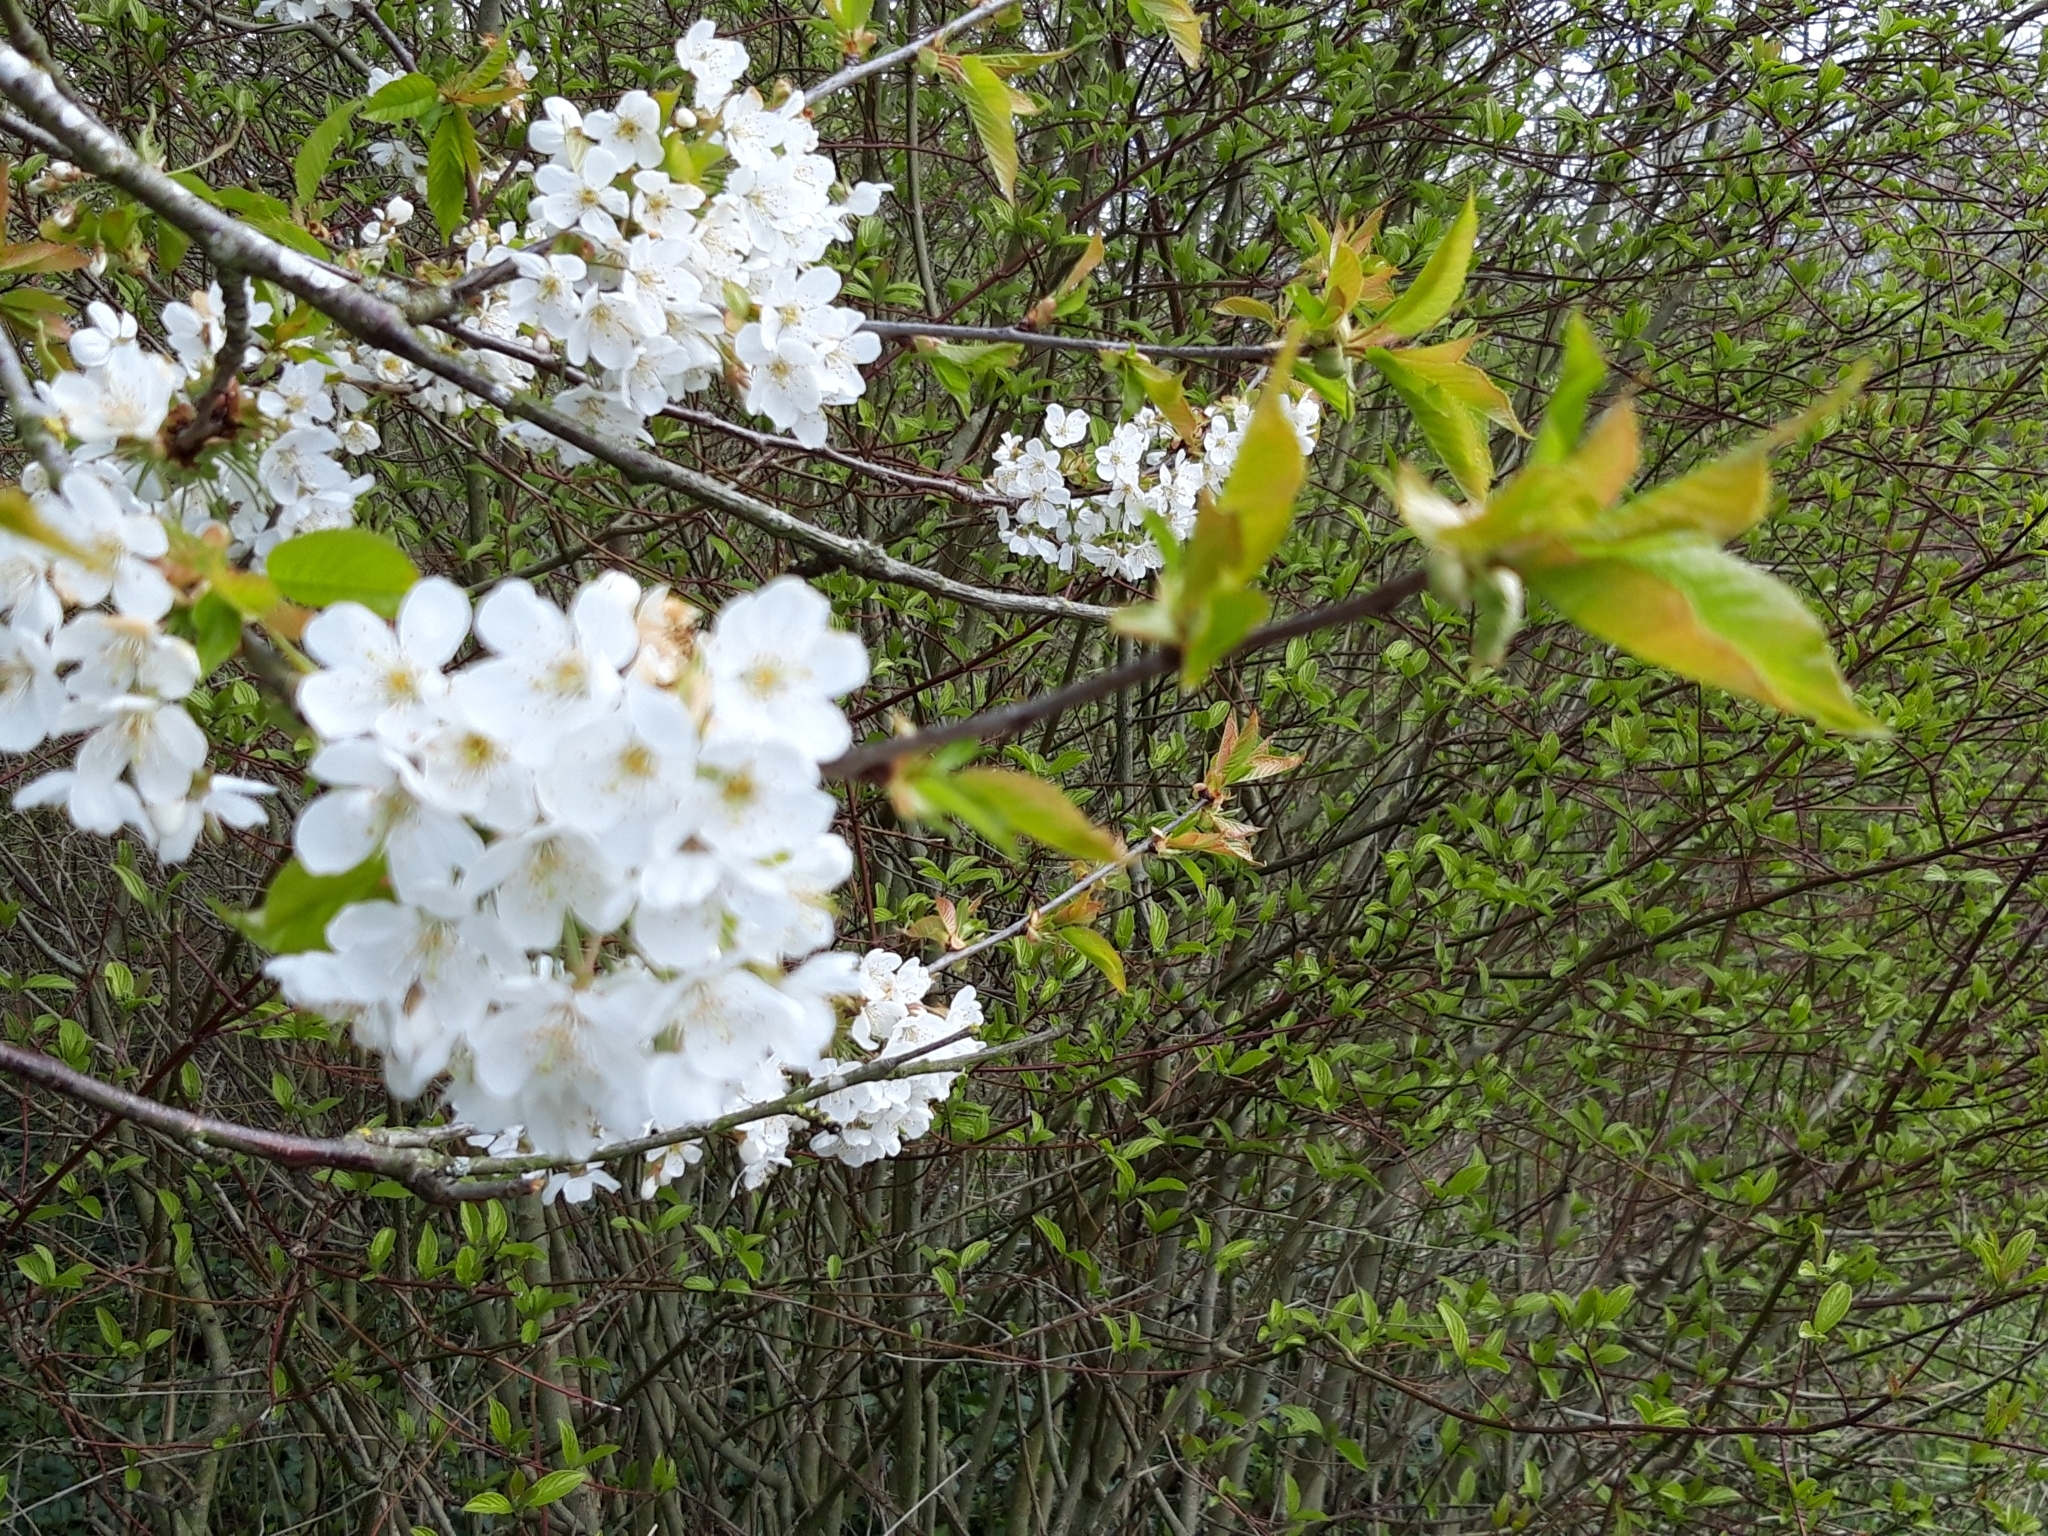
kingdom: Plantae
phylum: Tracheophyta
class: Magnoliopsida
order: Rosales
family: Rosaceae
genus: Prunus
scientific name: Prunus avium
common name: Sweet cherry
